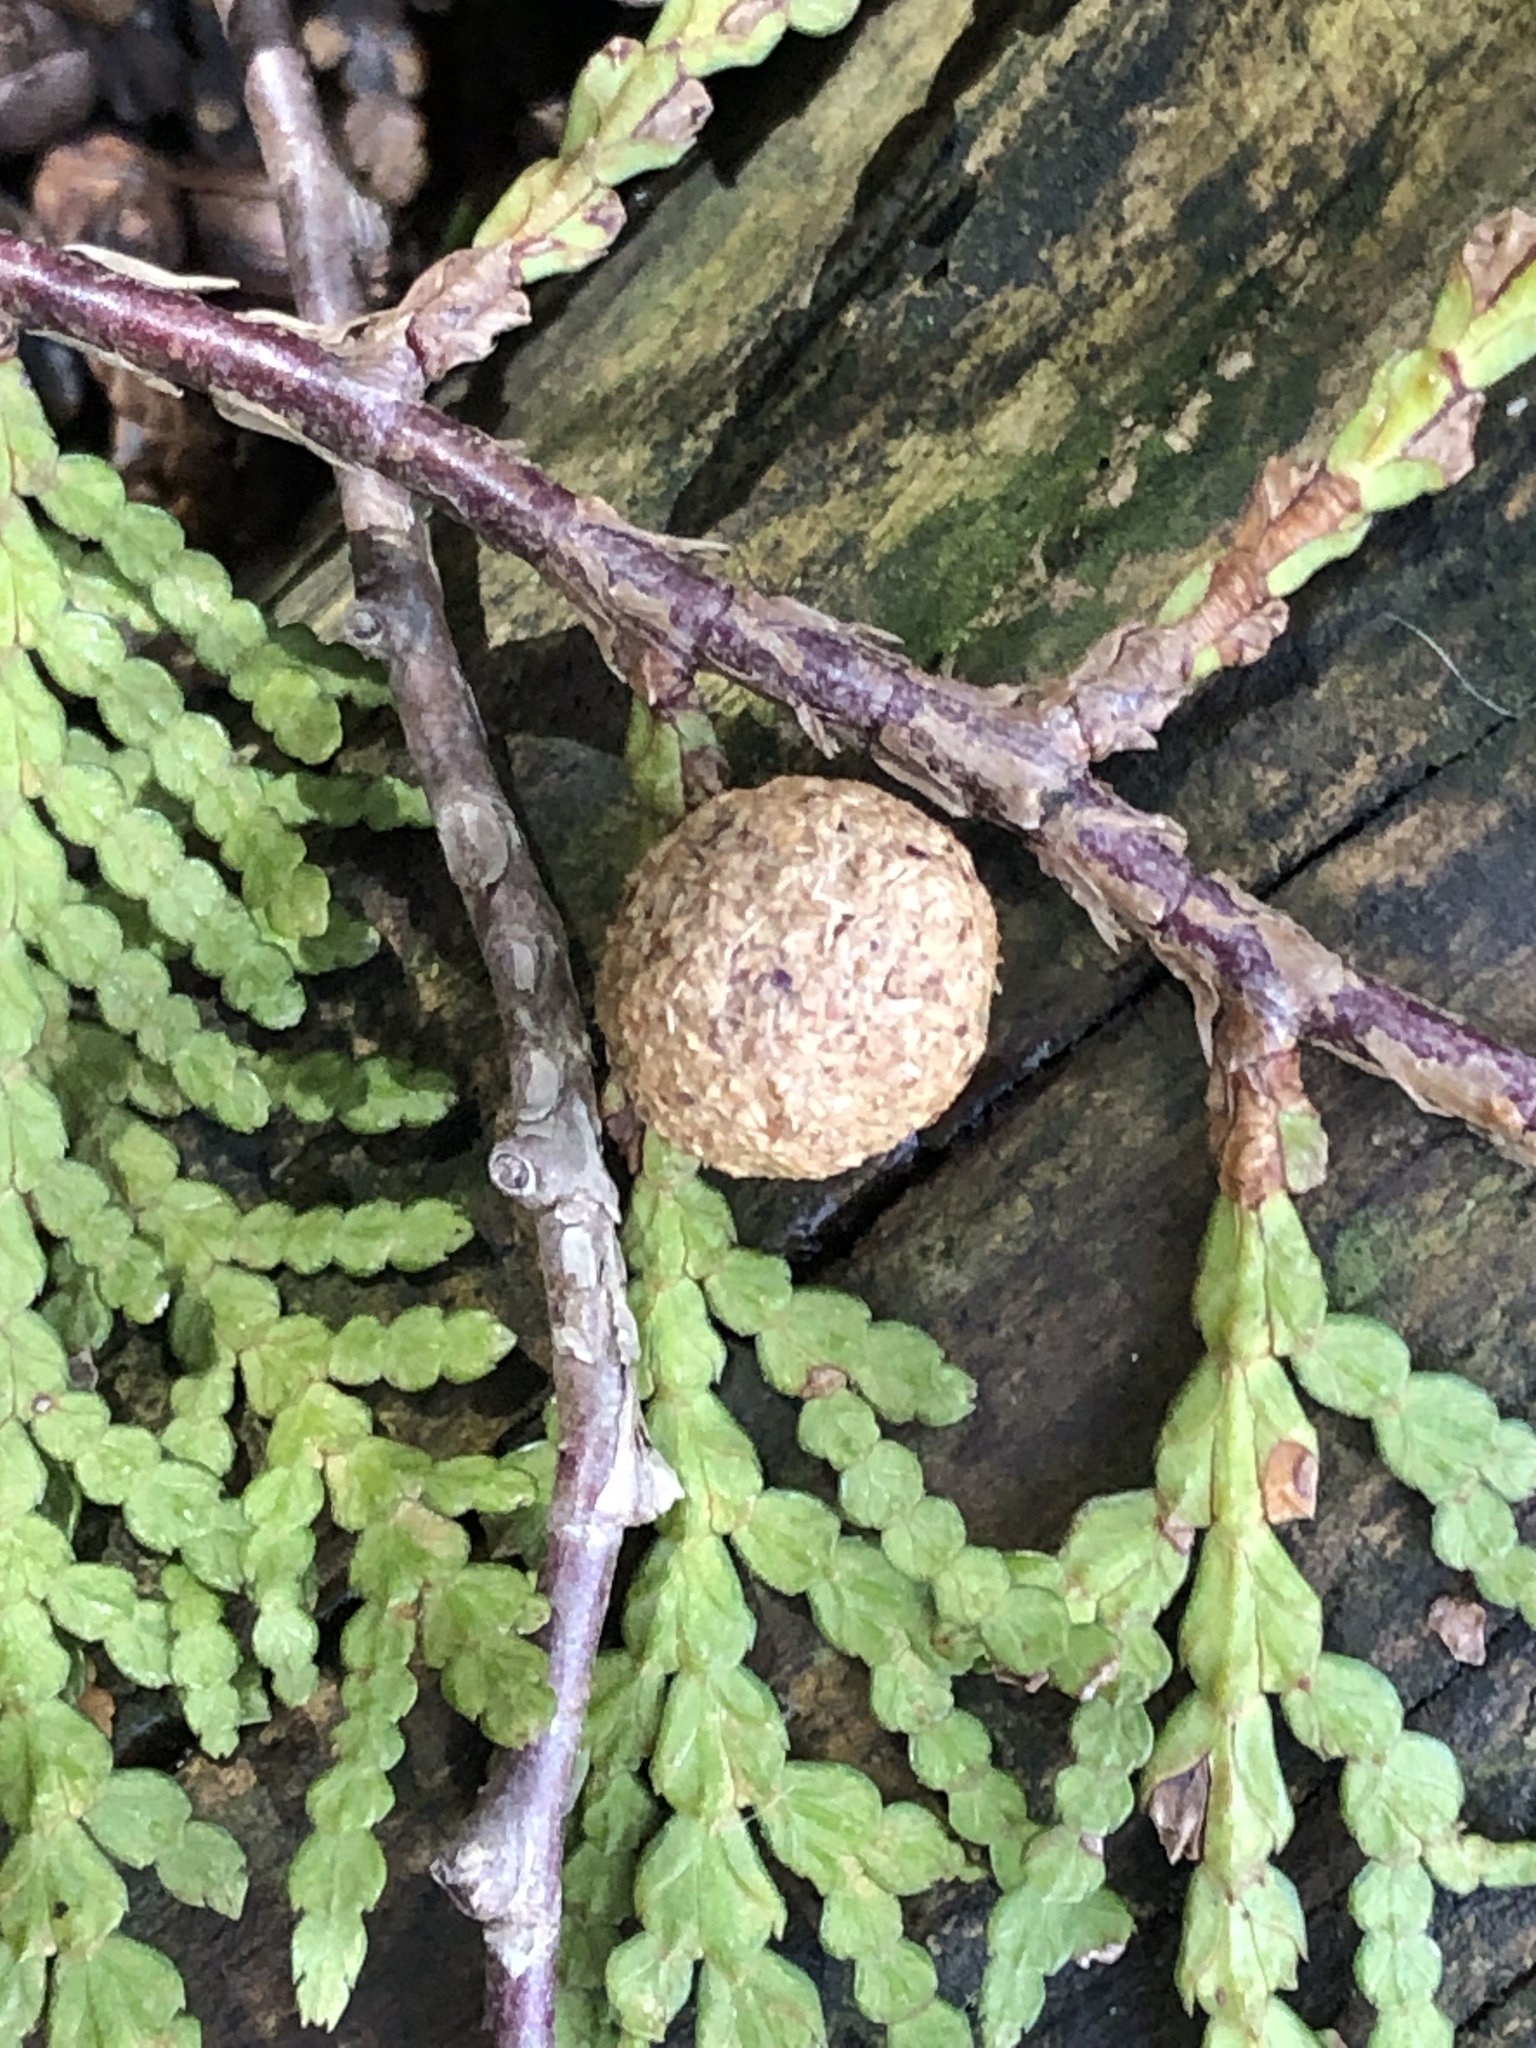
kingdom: Animalia
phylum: Chordata
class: Mammalia
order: Lagomorpha
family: Leporidae
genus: Sylvilagus
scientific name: Sylvilagus floridanus
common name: Eastern cottontail
